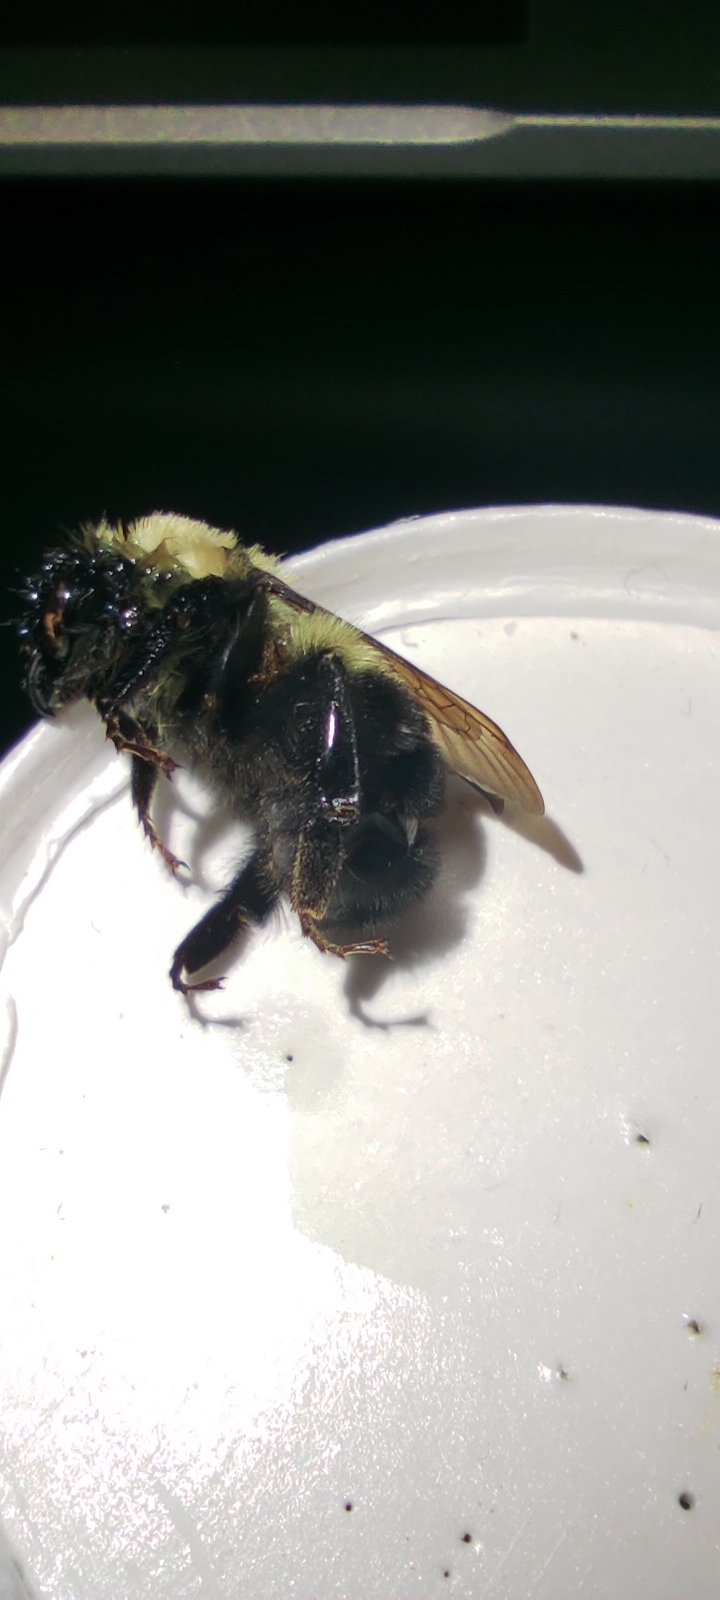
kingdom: Animalia
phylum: Arthropoda
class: Insecta
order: Hymenoptera
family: Apidae
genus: Bombus
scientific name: Bombus bimaculatus
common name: Two-spotted bumble bee
